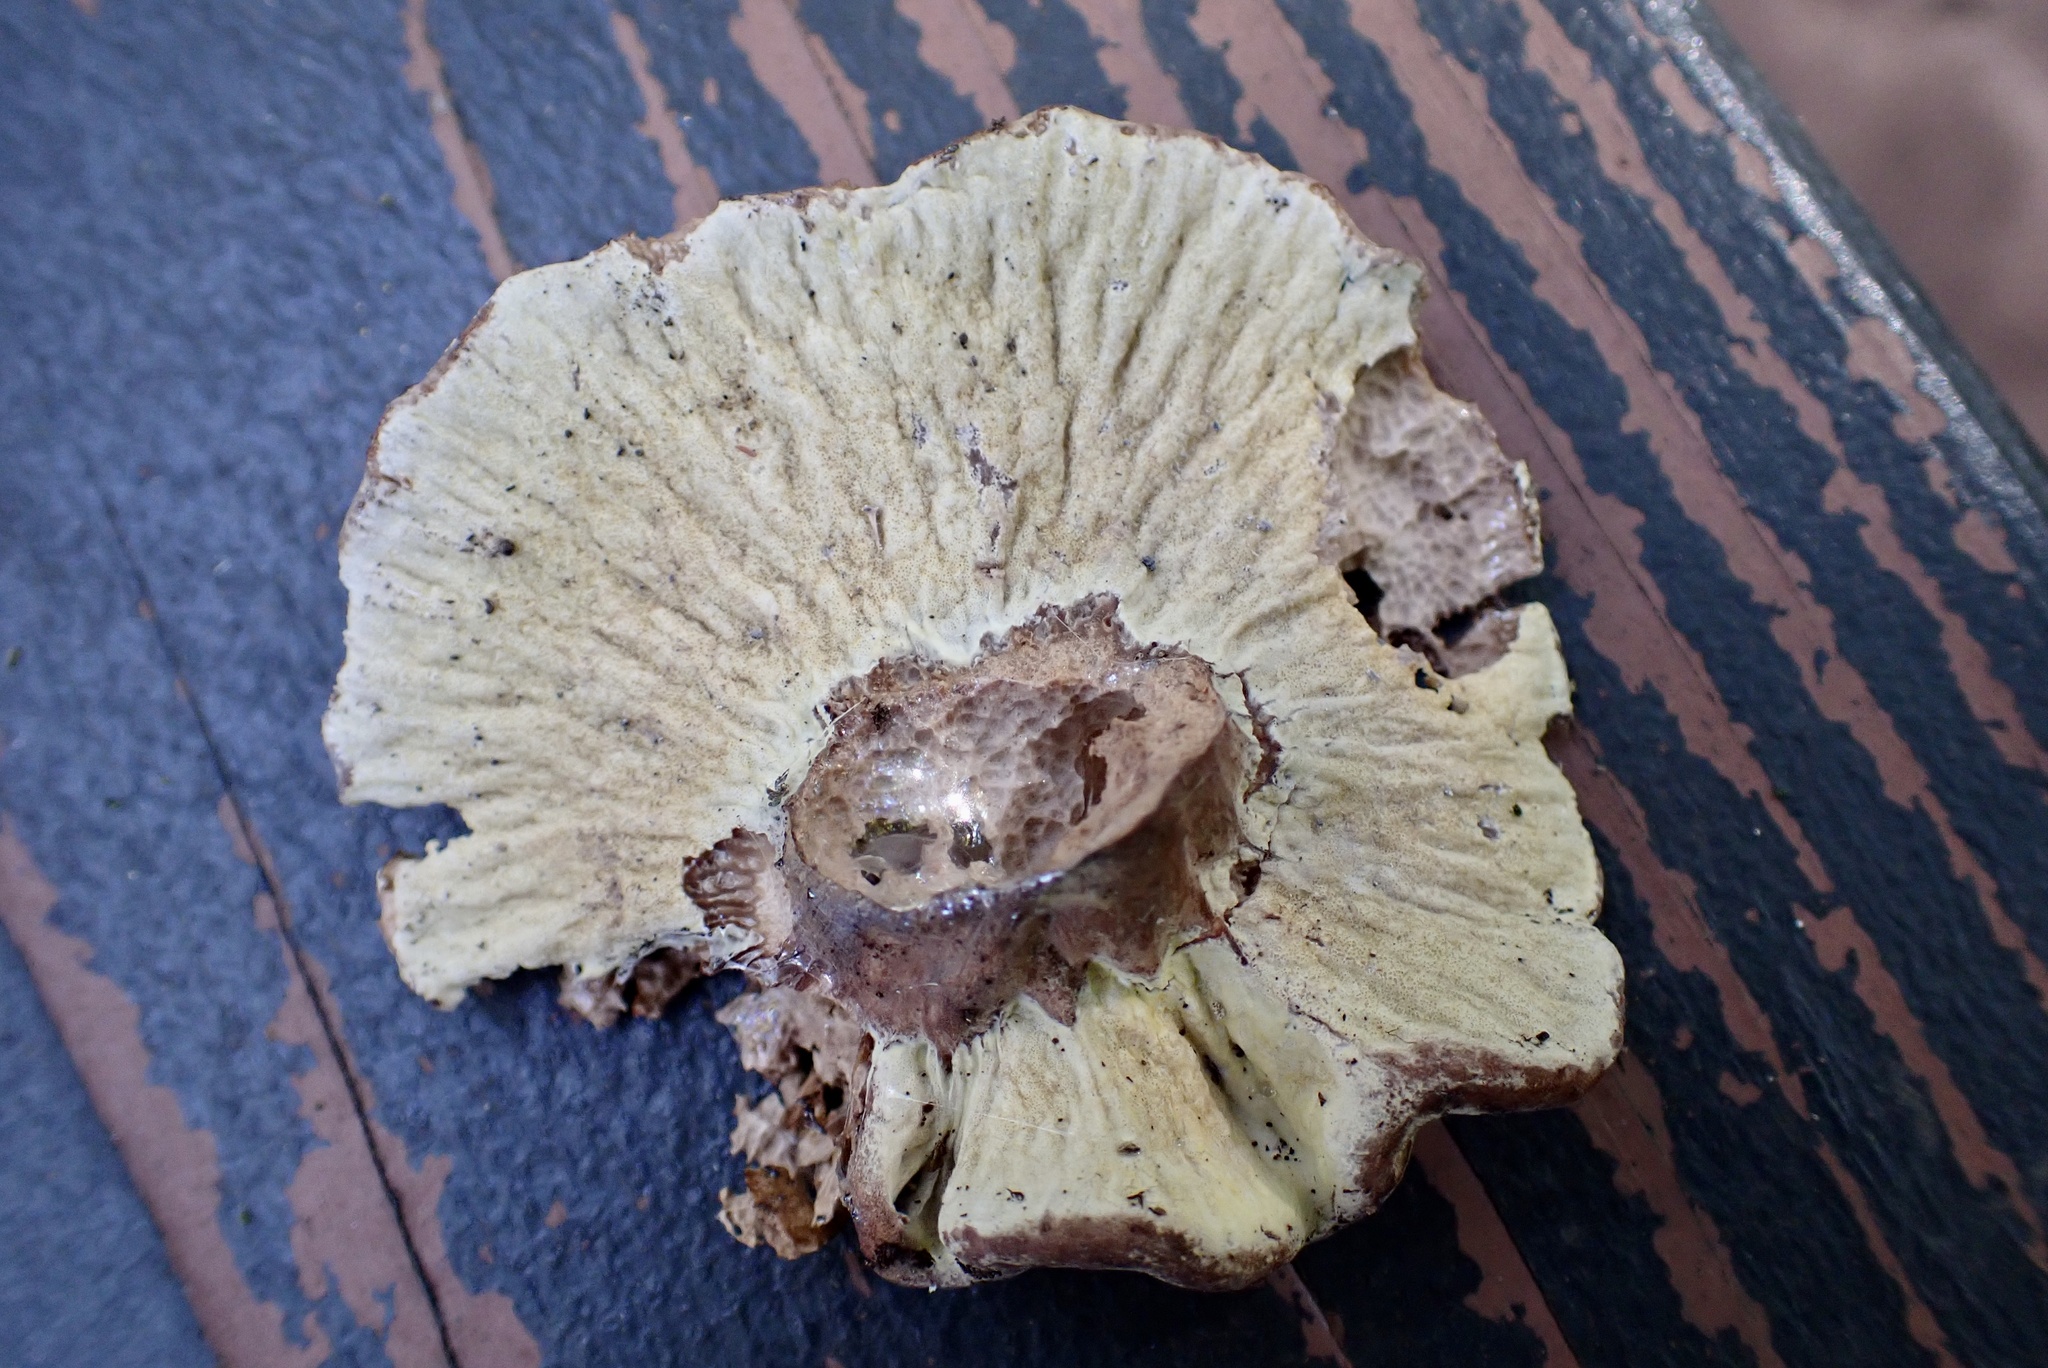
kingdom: Fungi
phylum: Ascomycota
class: Sordariomycetes
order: Hypocreales
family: Hypocreaceae
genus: Hypomyces
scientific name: Hypomyces camphorati
